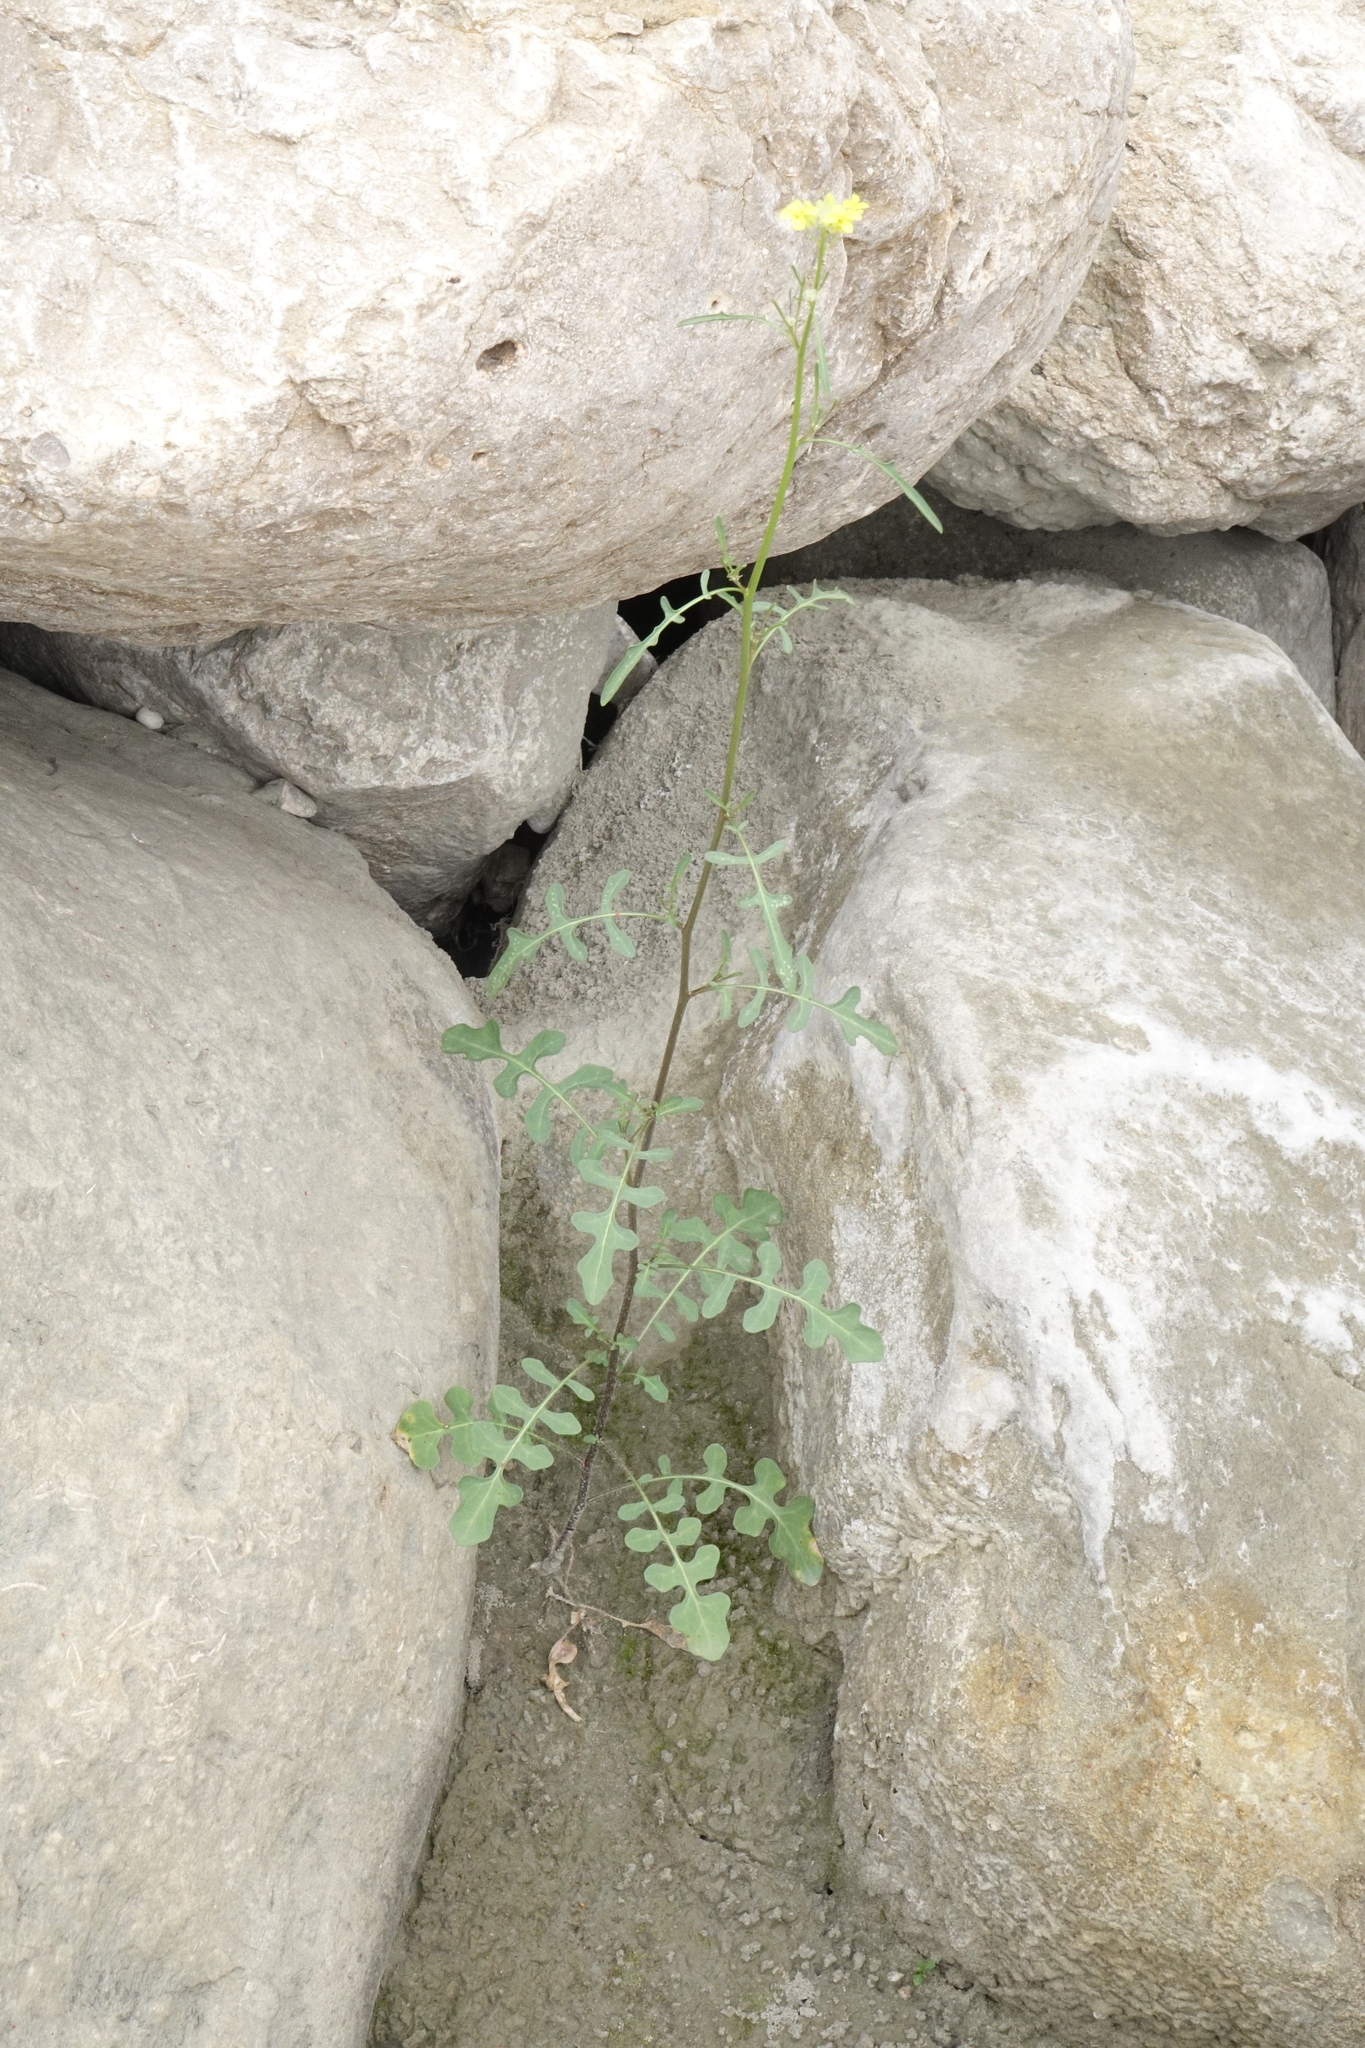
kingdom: Plantae
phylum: Tracheophyta
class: Magnoliopsida
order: Brassicales
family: Brassicaceae
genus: Sisymbrium
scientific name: Sisymbrium loeselii
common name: False london-rocket
